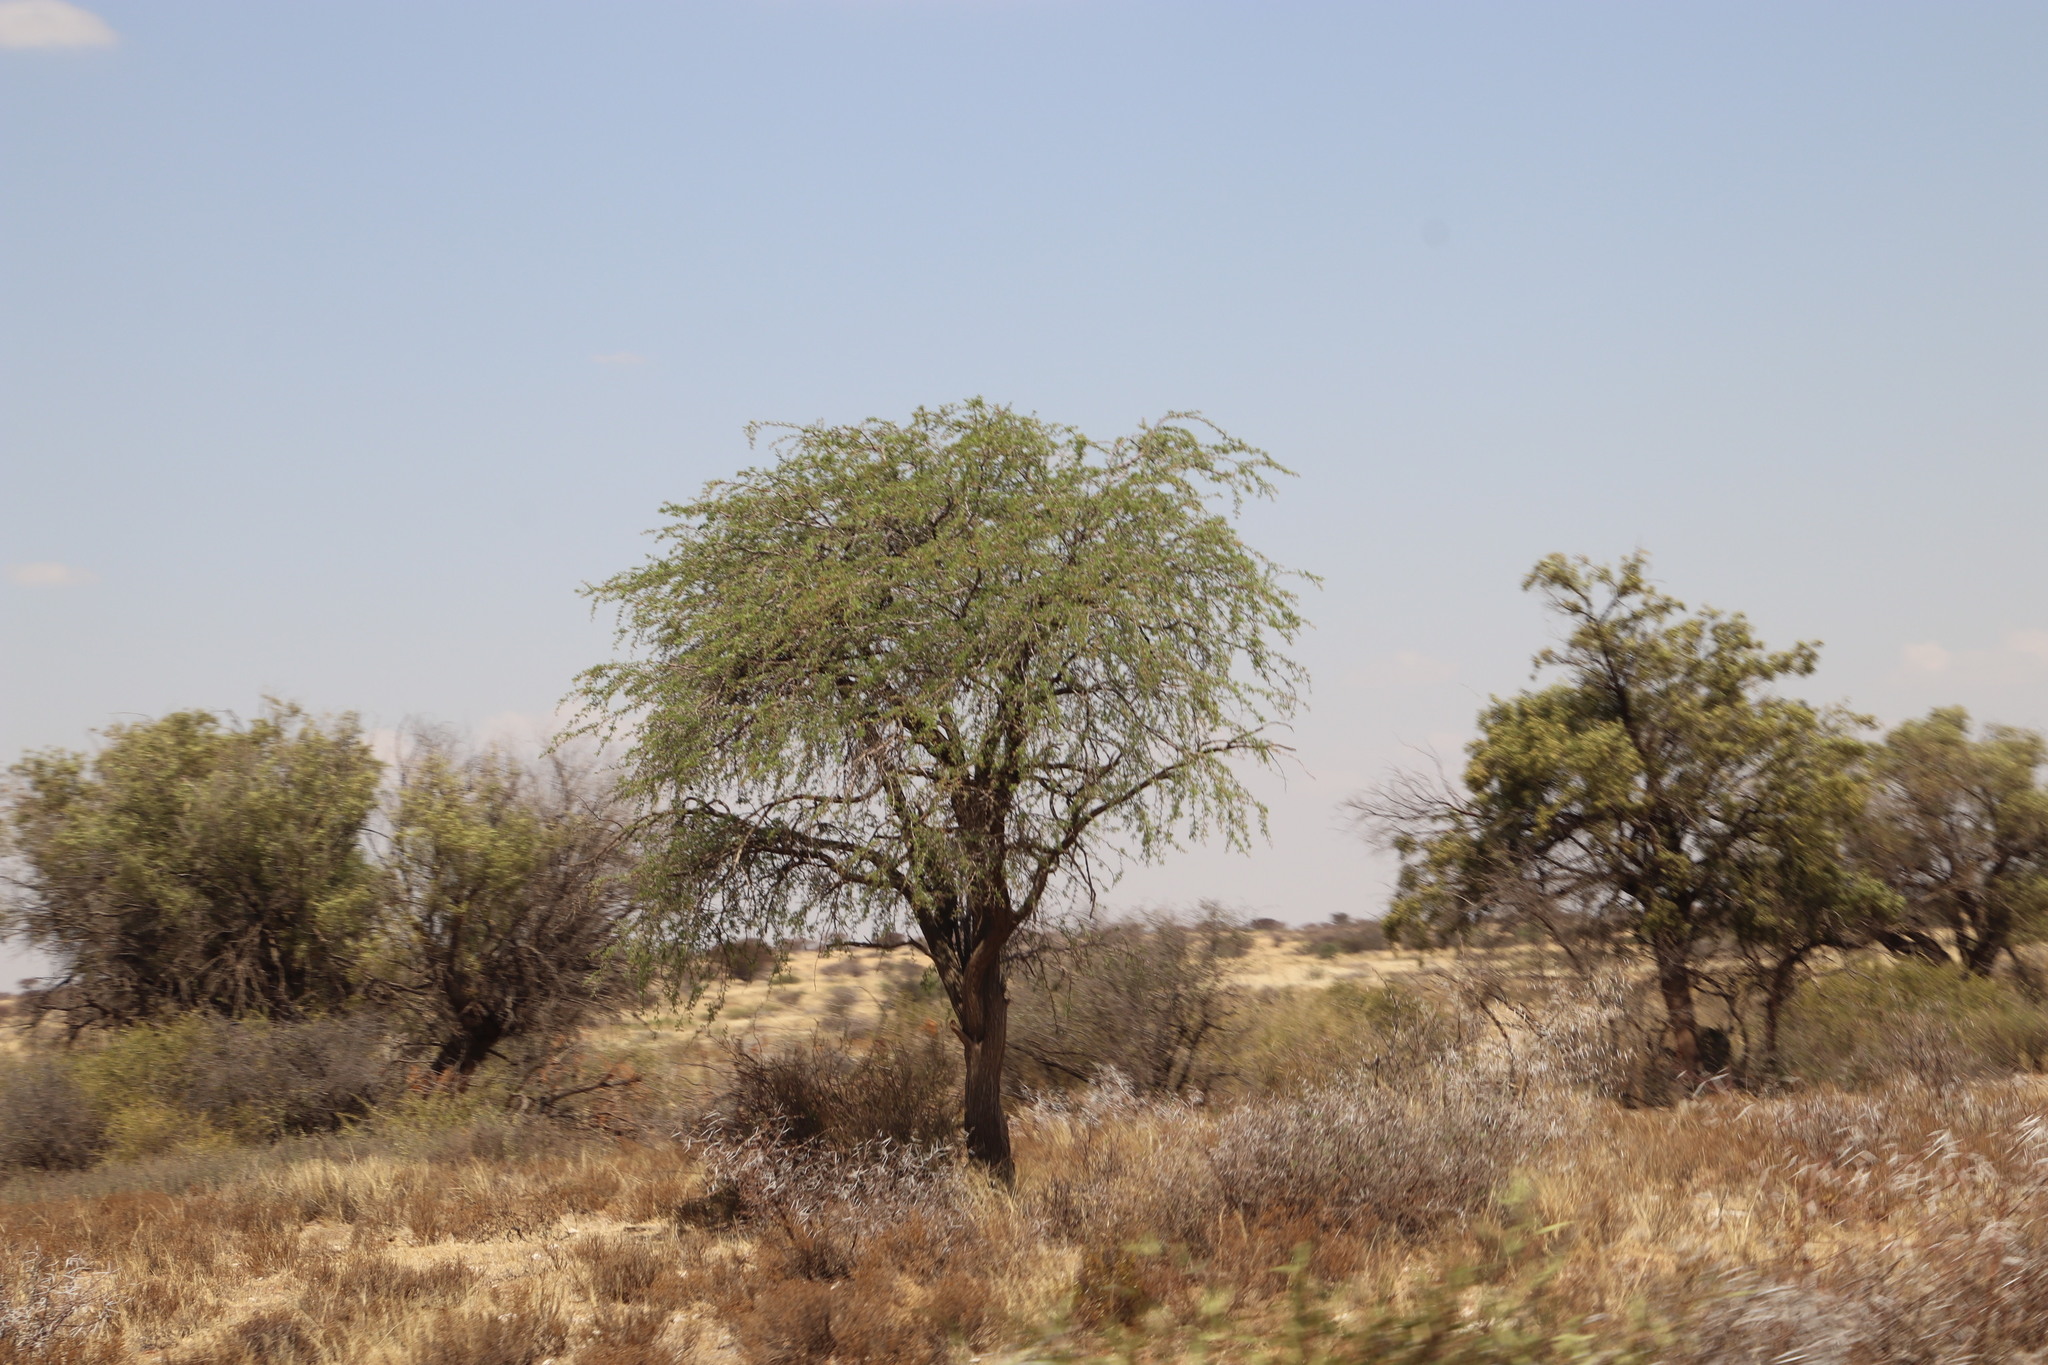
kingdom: Plantae
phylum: Tracheophyta
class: Magnoliopsida
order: Fabales
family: Fabaceae
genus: Vachellia
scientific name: Vachellia erioloba
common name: Camel thorn
